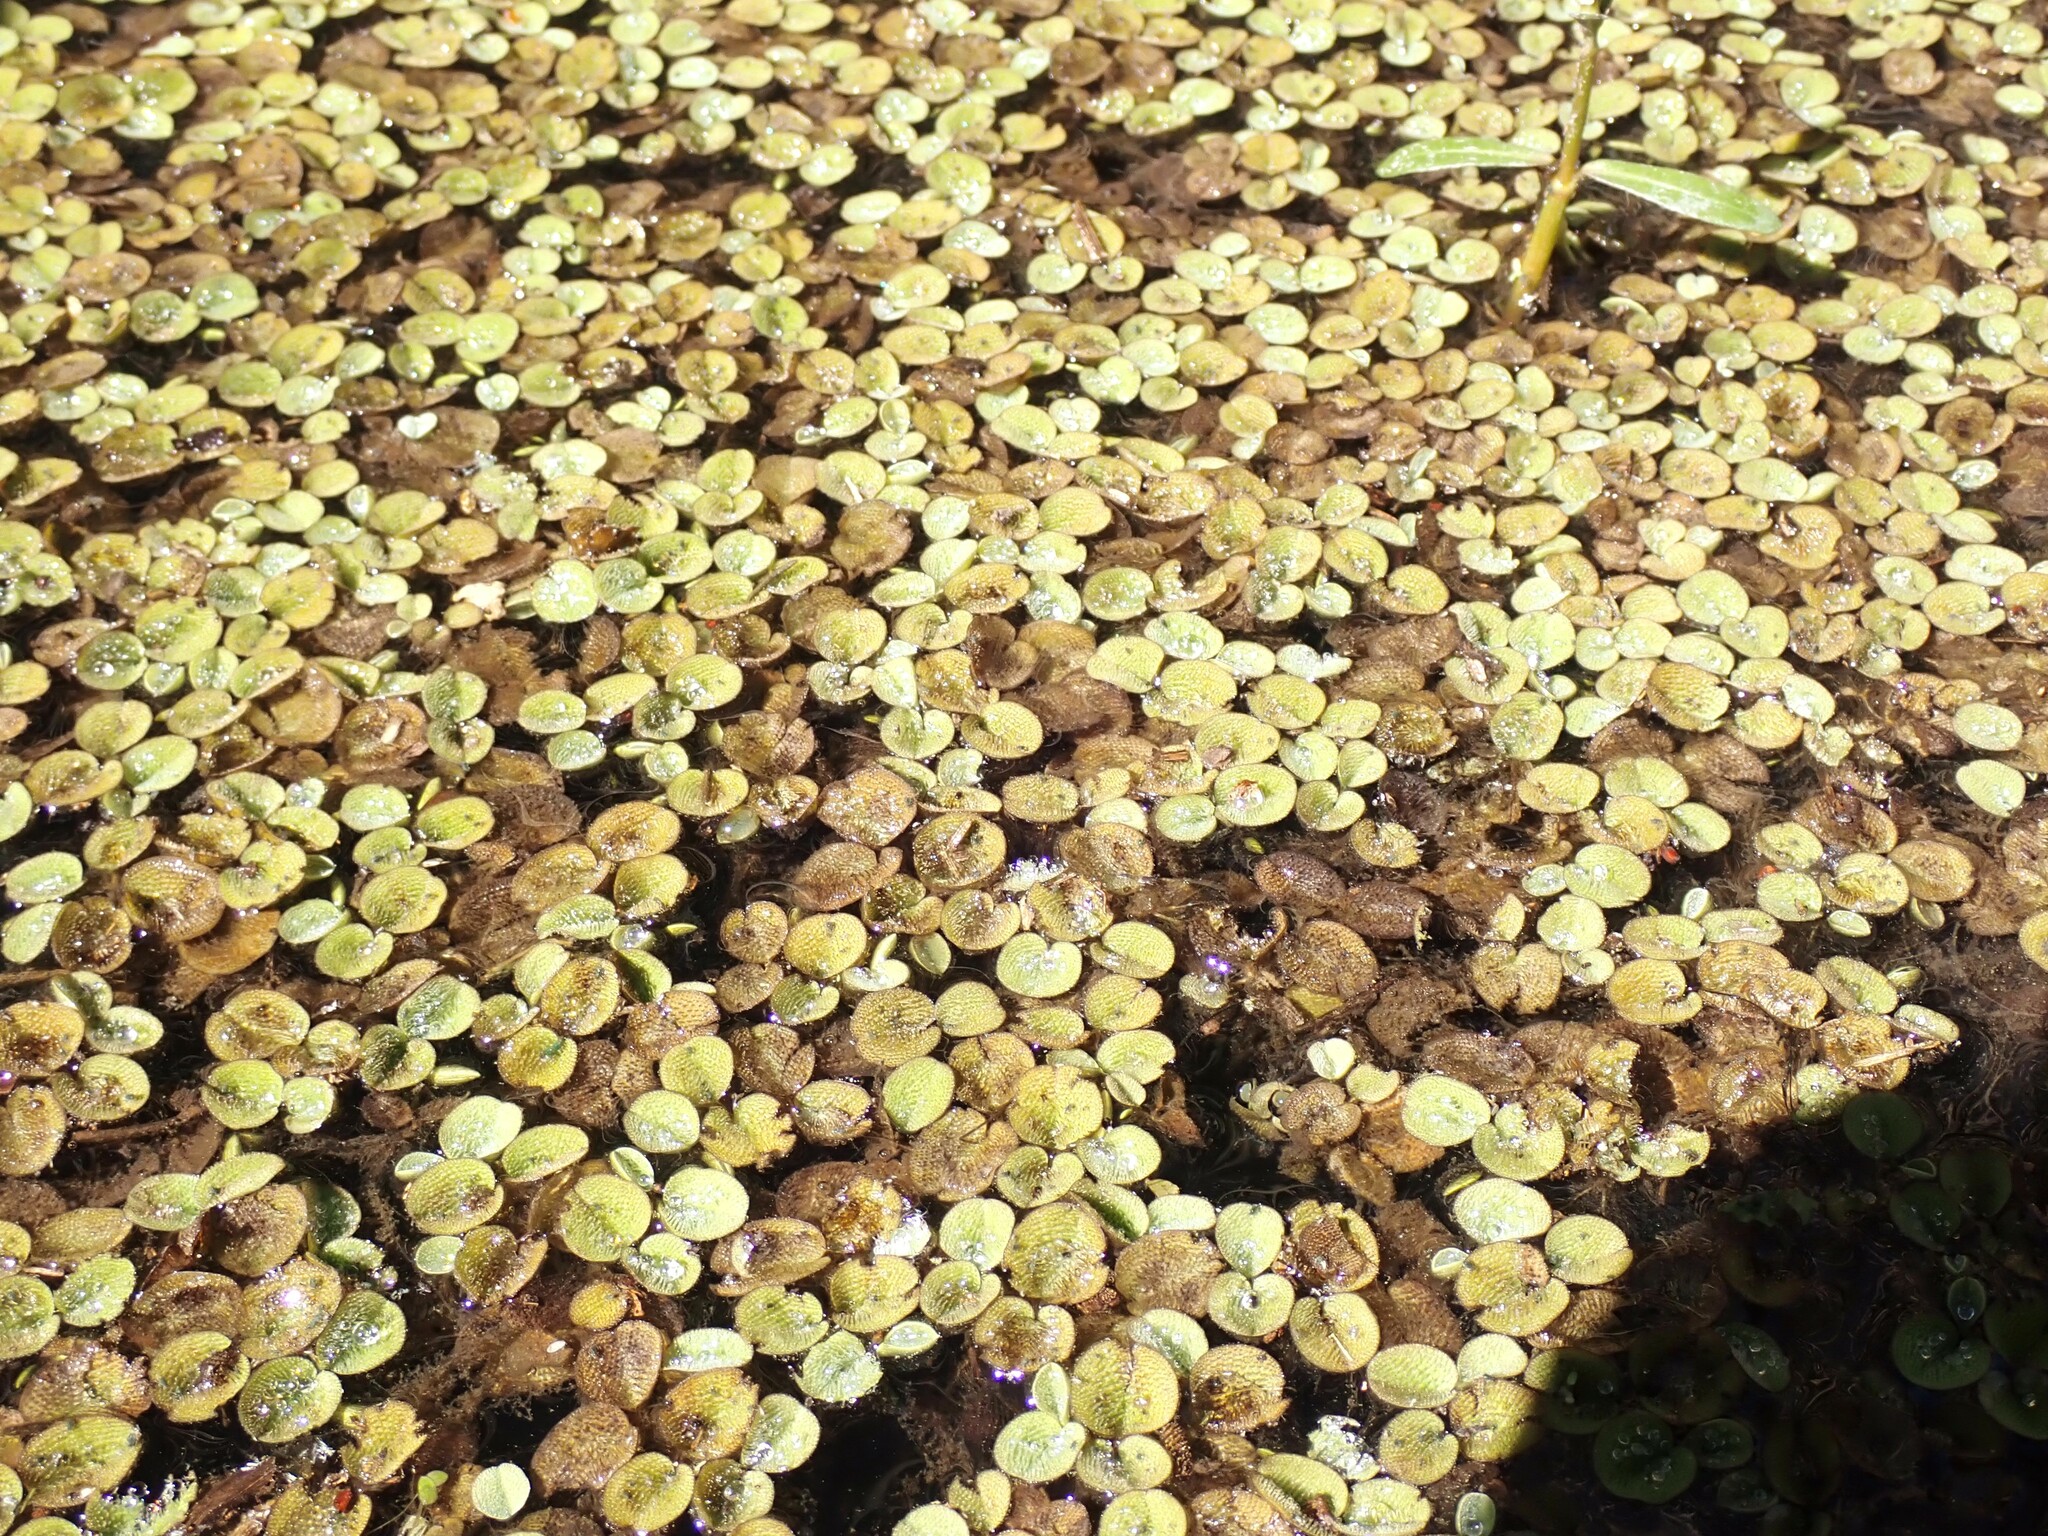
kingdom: Plantae
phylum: Tracheophyta
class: Polypodiopsida
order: Salviniales
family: Salviniaceae
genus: Salvinia
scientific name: Salvinia minima
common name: Water spangles
